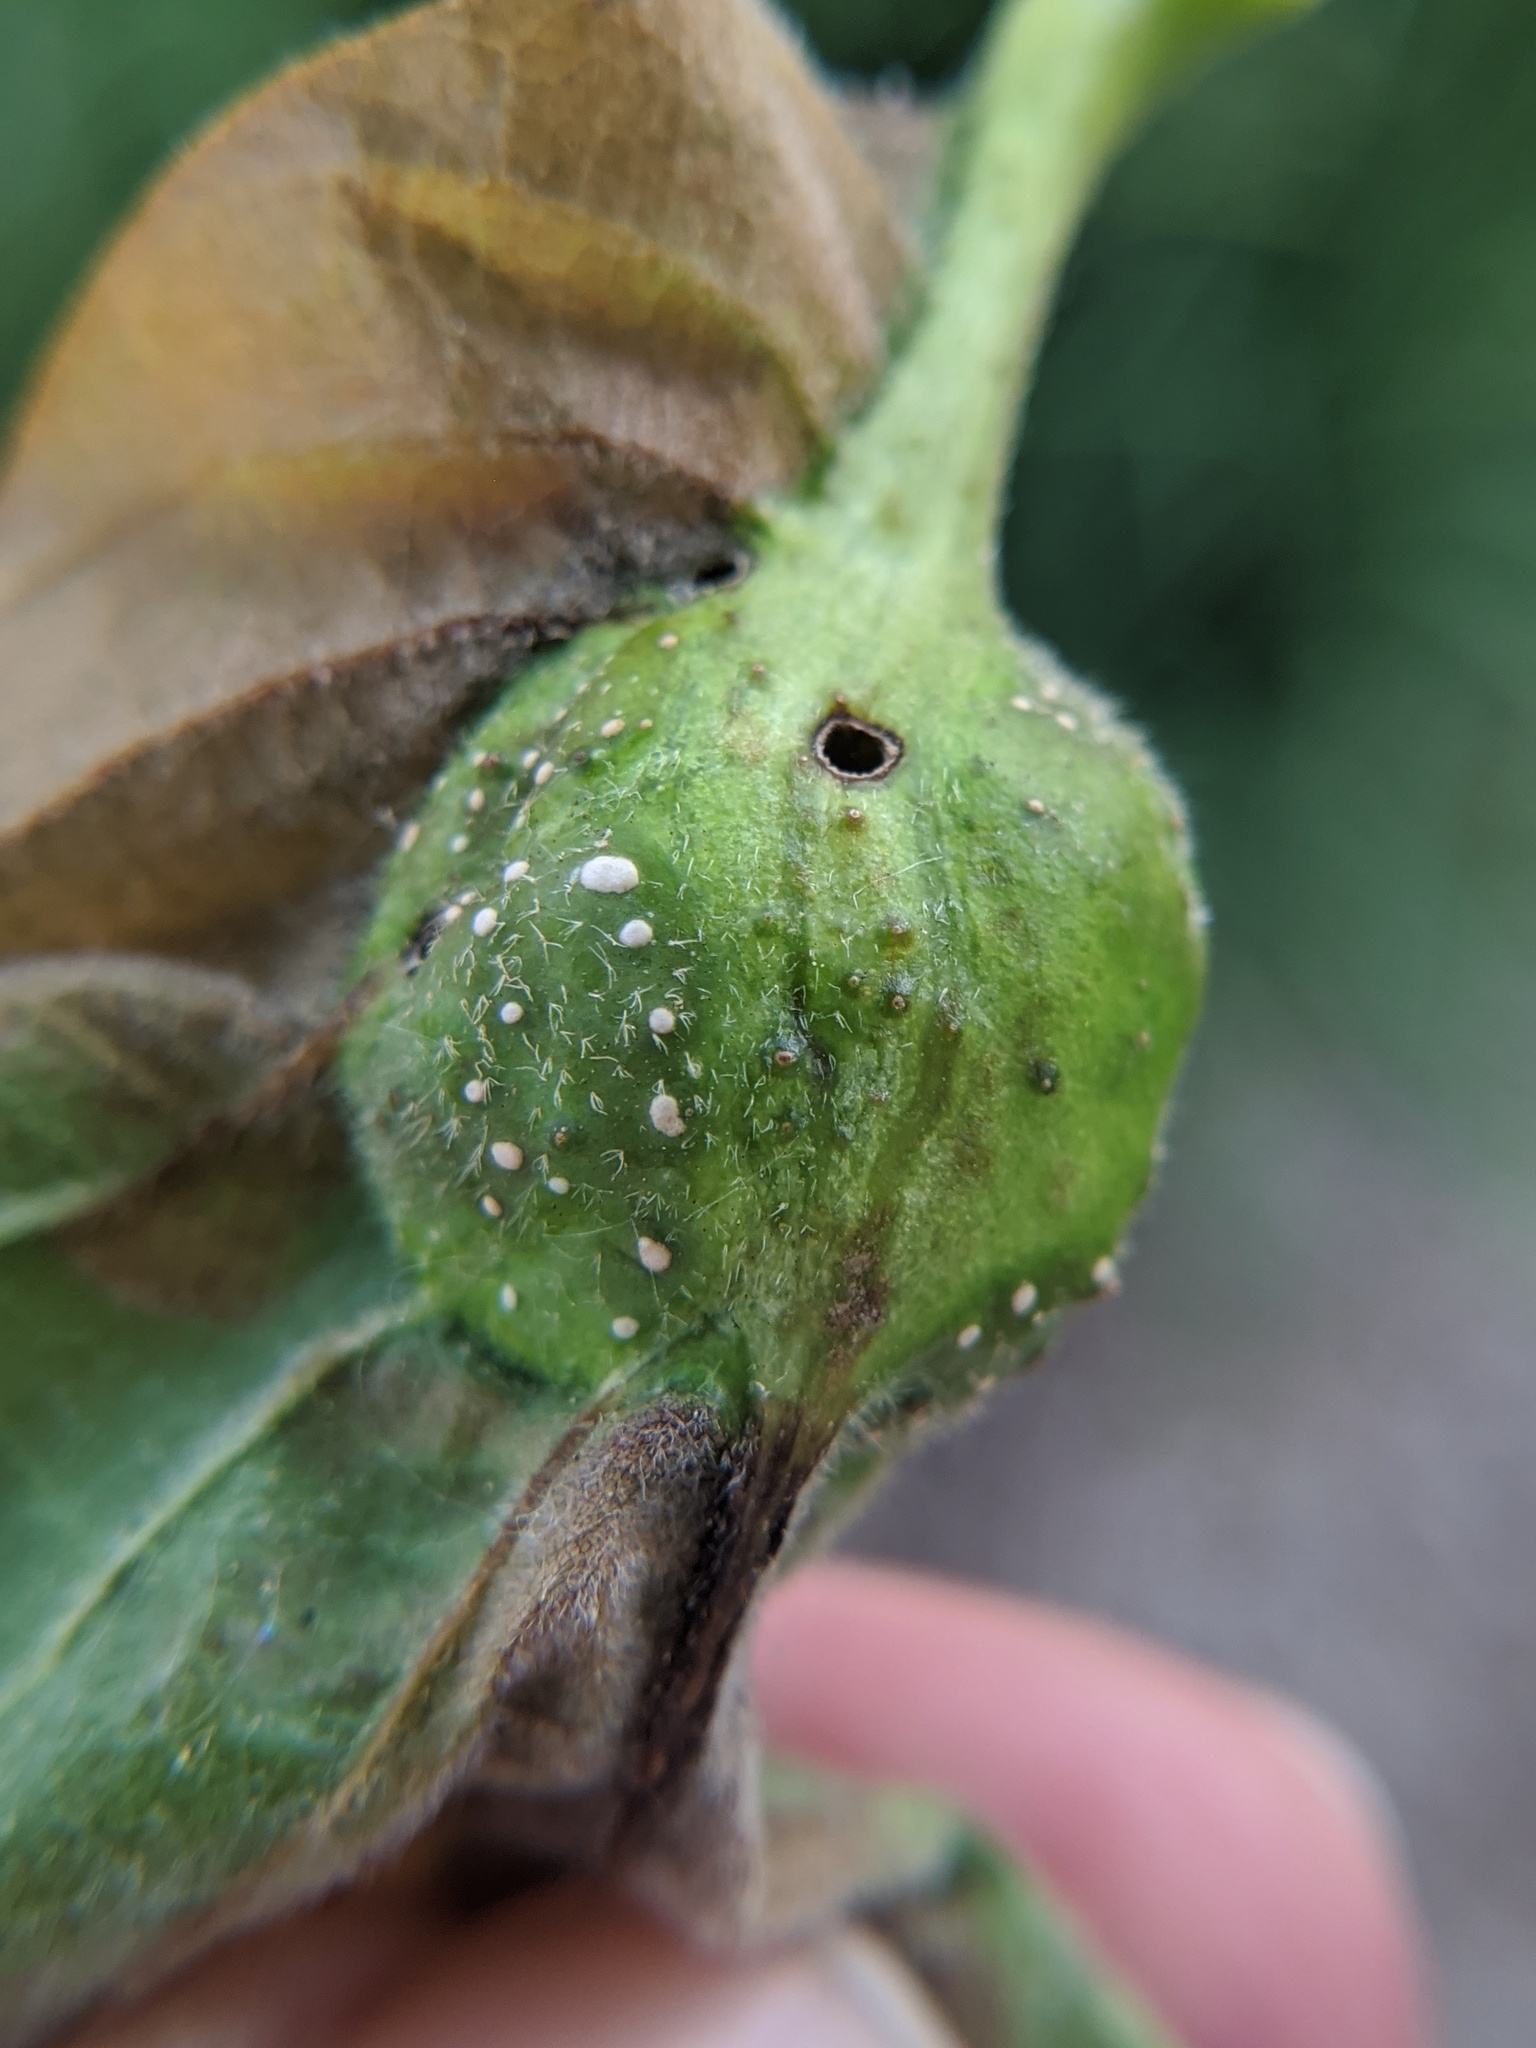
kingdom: Animalia
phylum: Arthropoda
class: Insecta
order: Hymenoptera
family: Cynipidae
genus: Andricus
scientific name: Andricus
